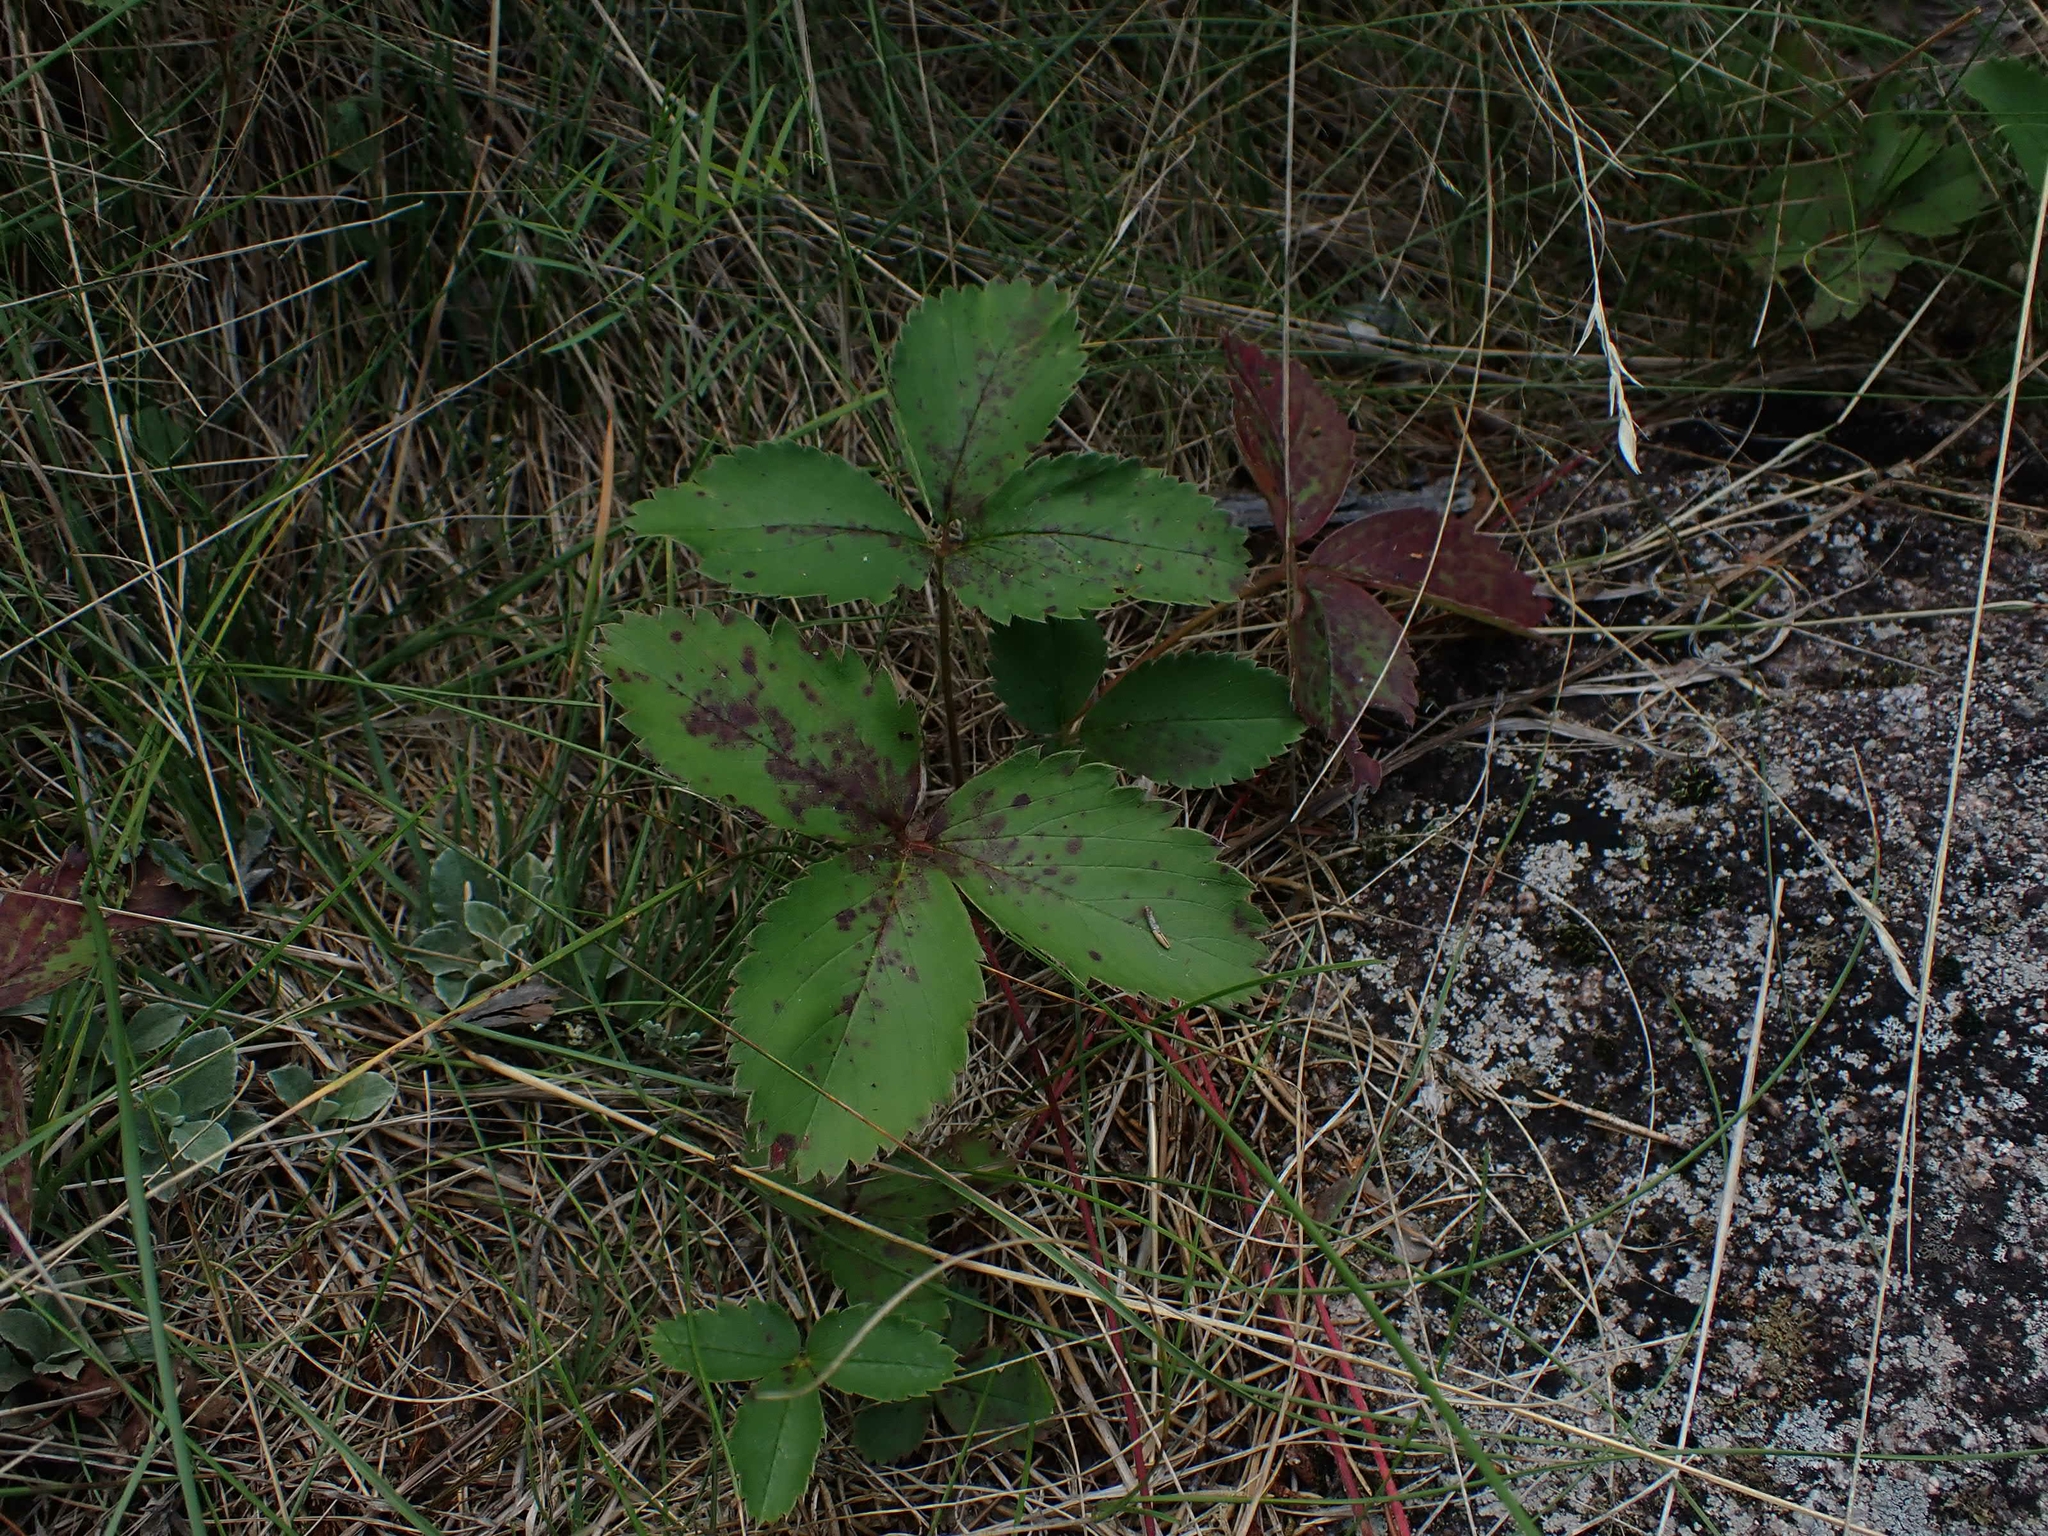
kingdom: Plantae
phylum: Tracheophyta
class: Magnoliopsida
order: Rosales
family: Rosaceae
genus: Fragaria
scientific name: Fragaria virginiana
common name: Thickleaved wild strawberry
